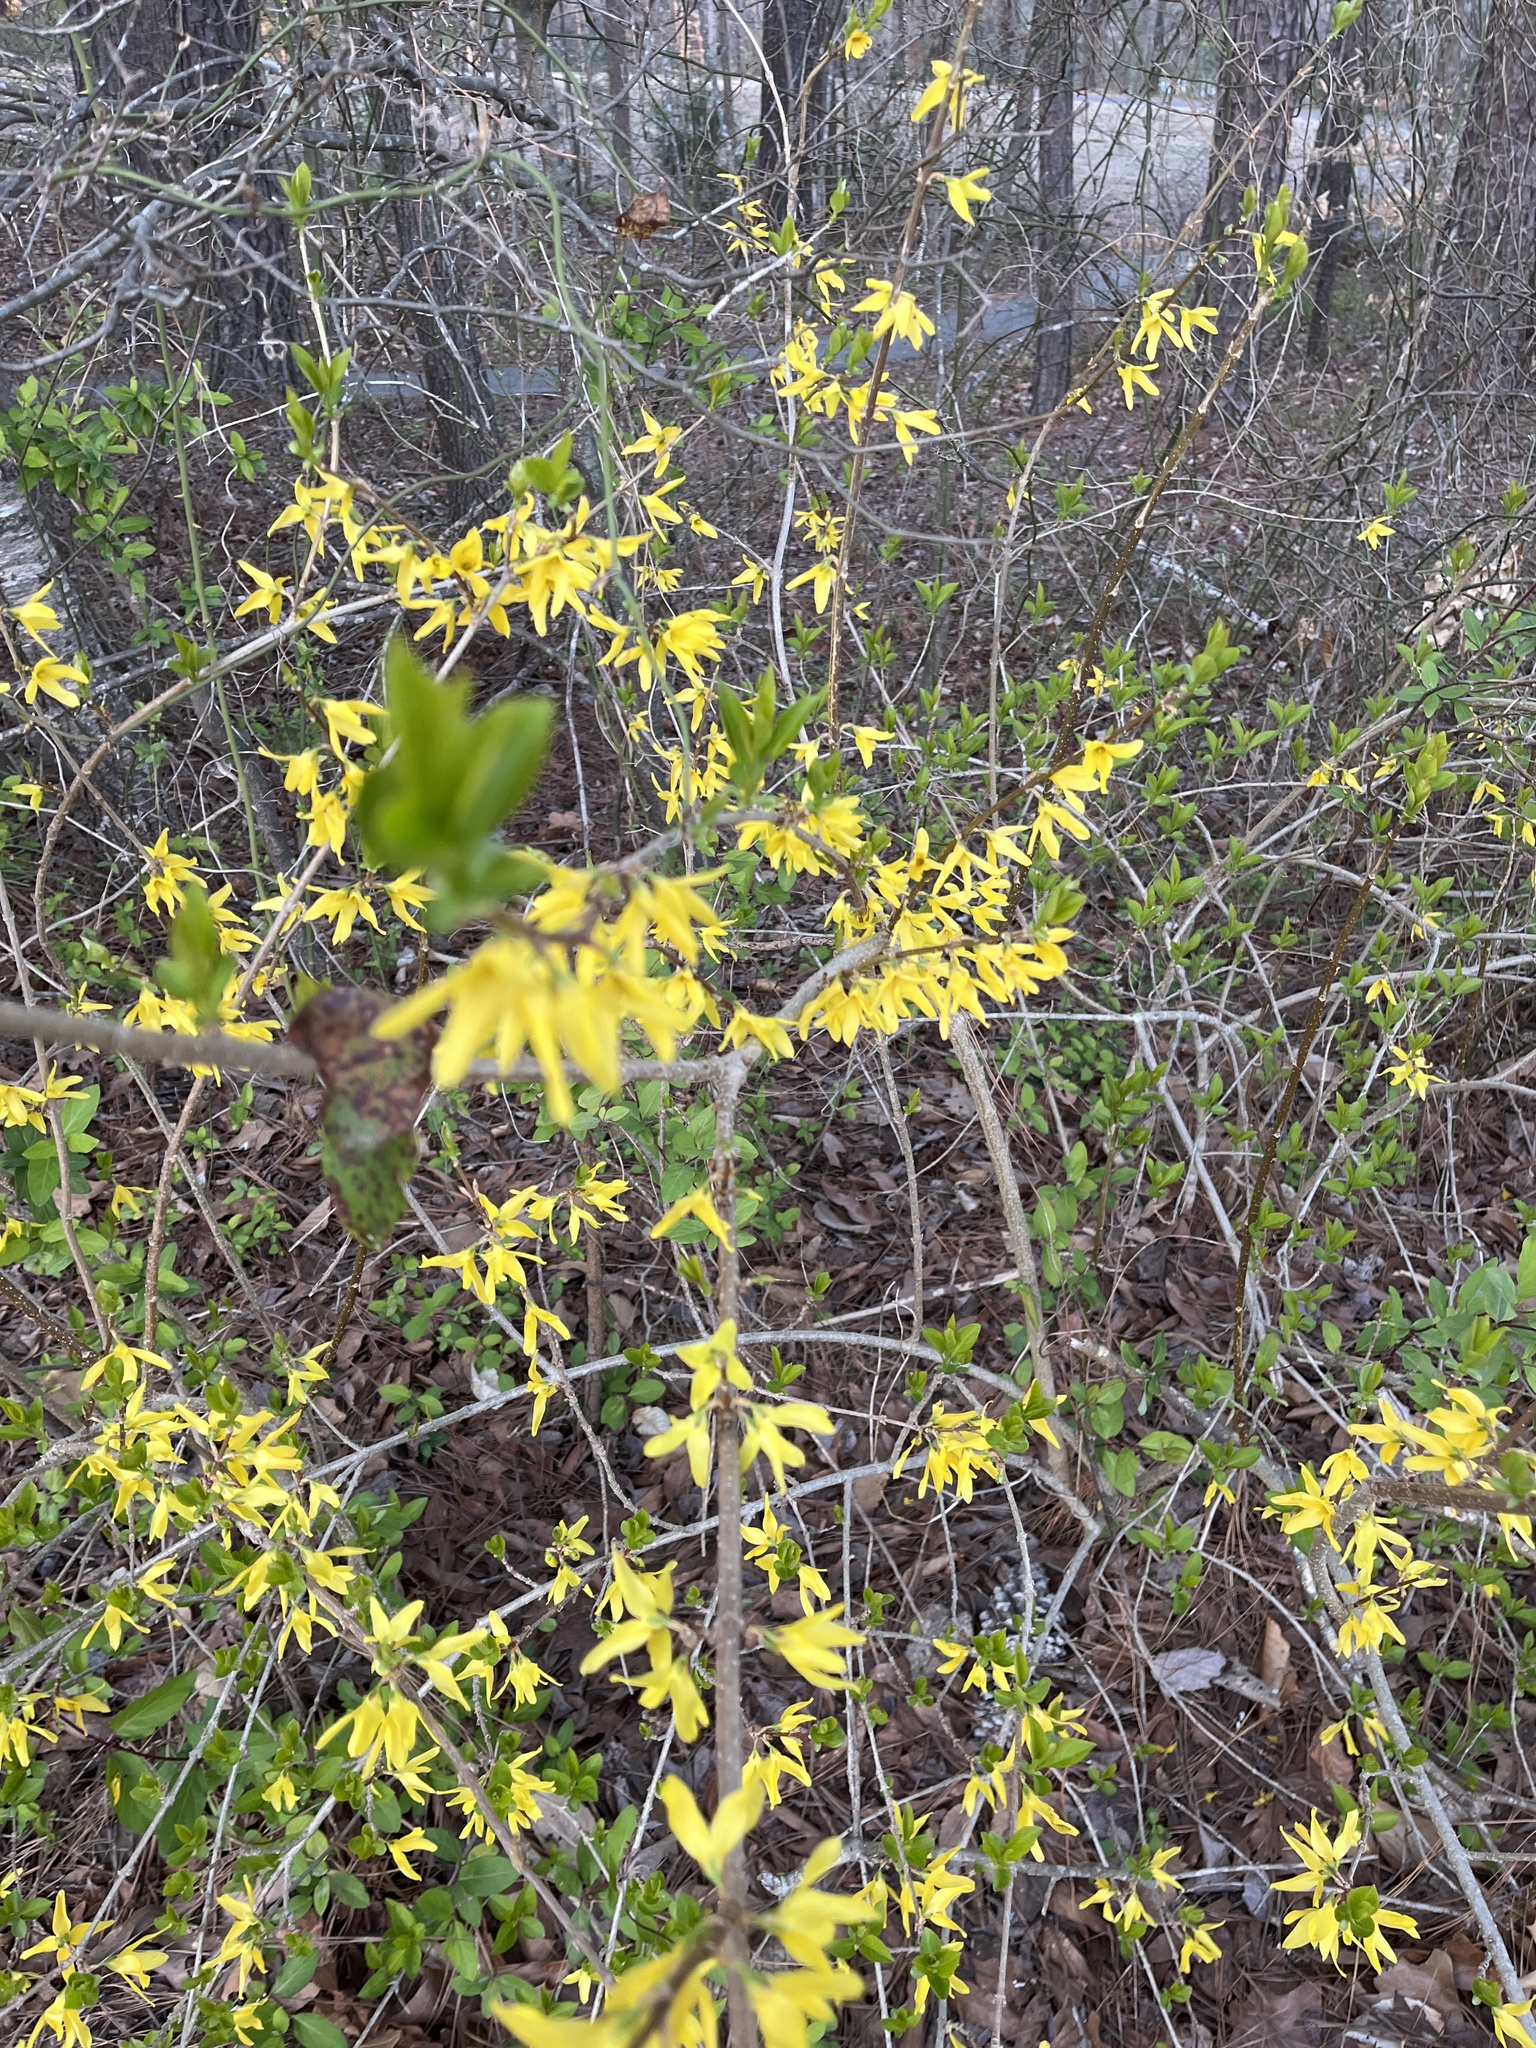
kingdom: Plantae
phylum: Tracheophyta
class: Magnoliopsida
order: Lamiales
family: Oleaceae
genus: Forsythia
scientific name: Forsythia suspensa
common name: Weeping forsythia
